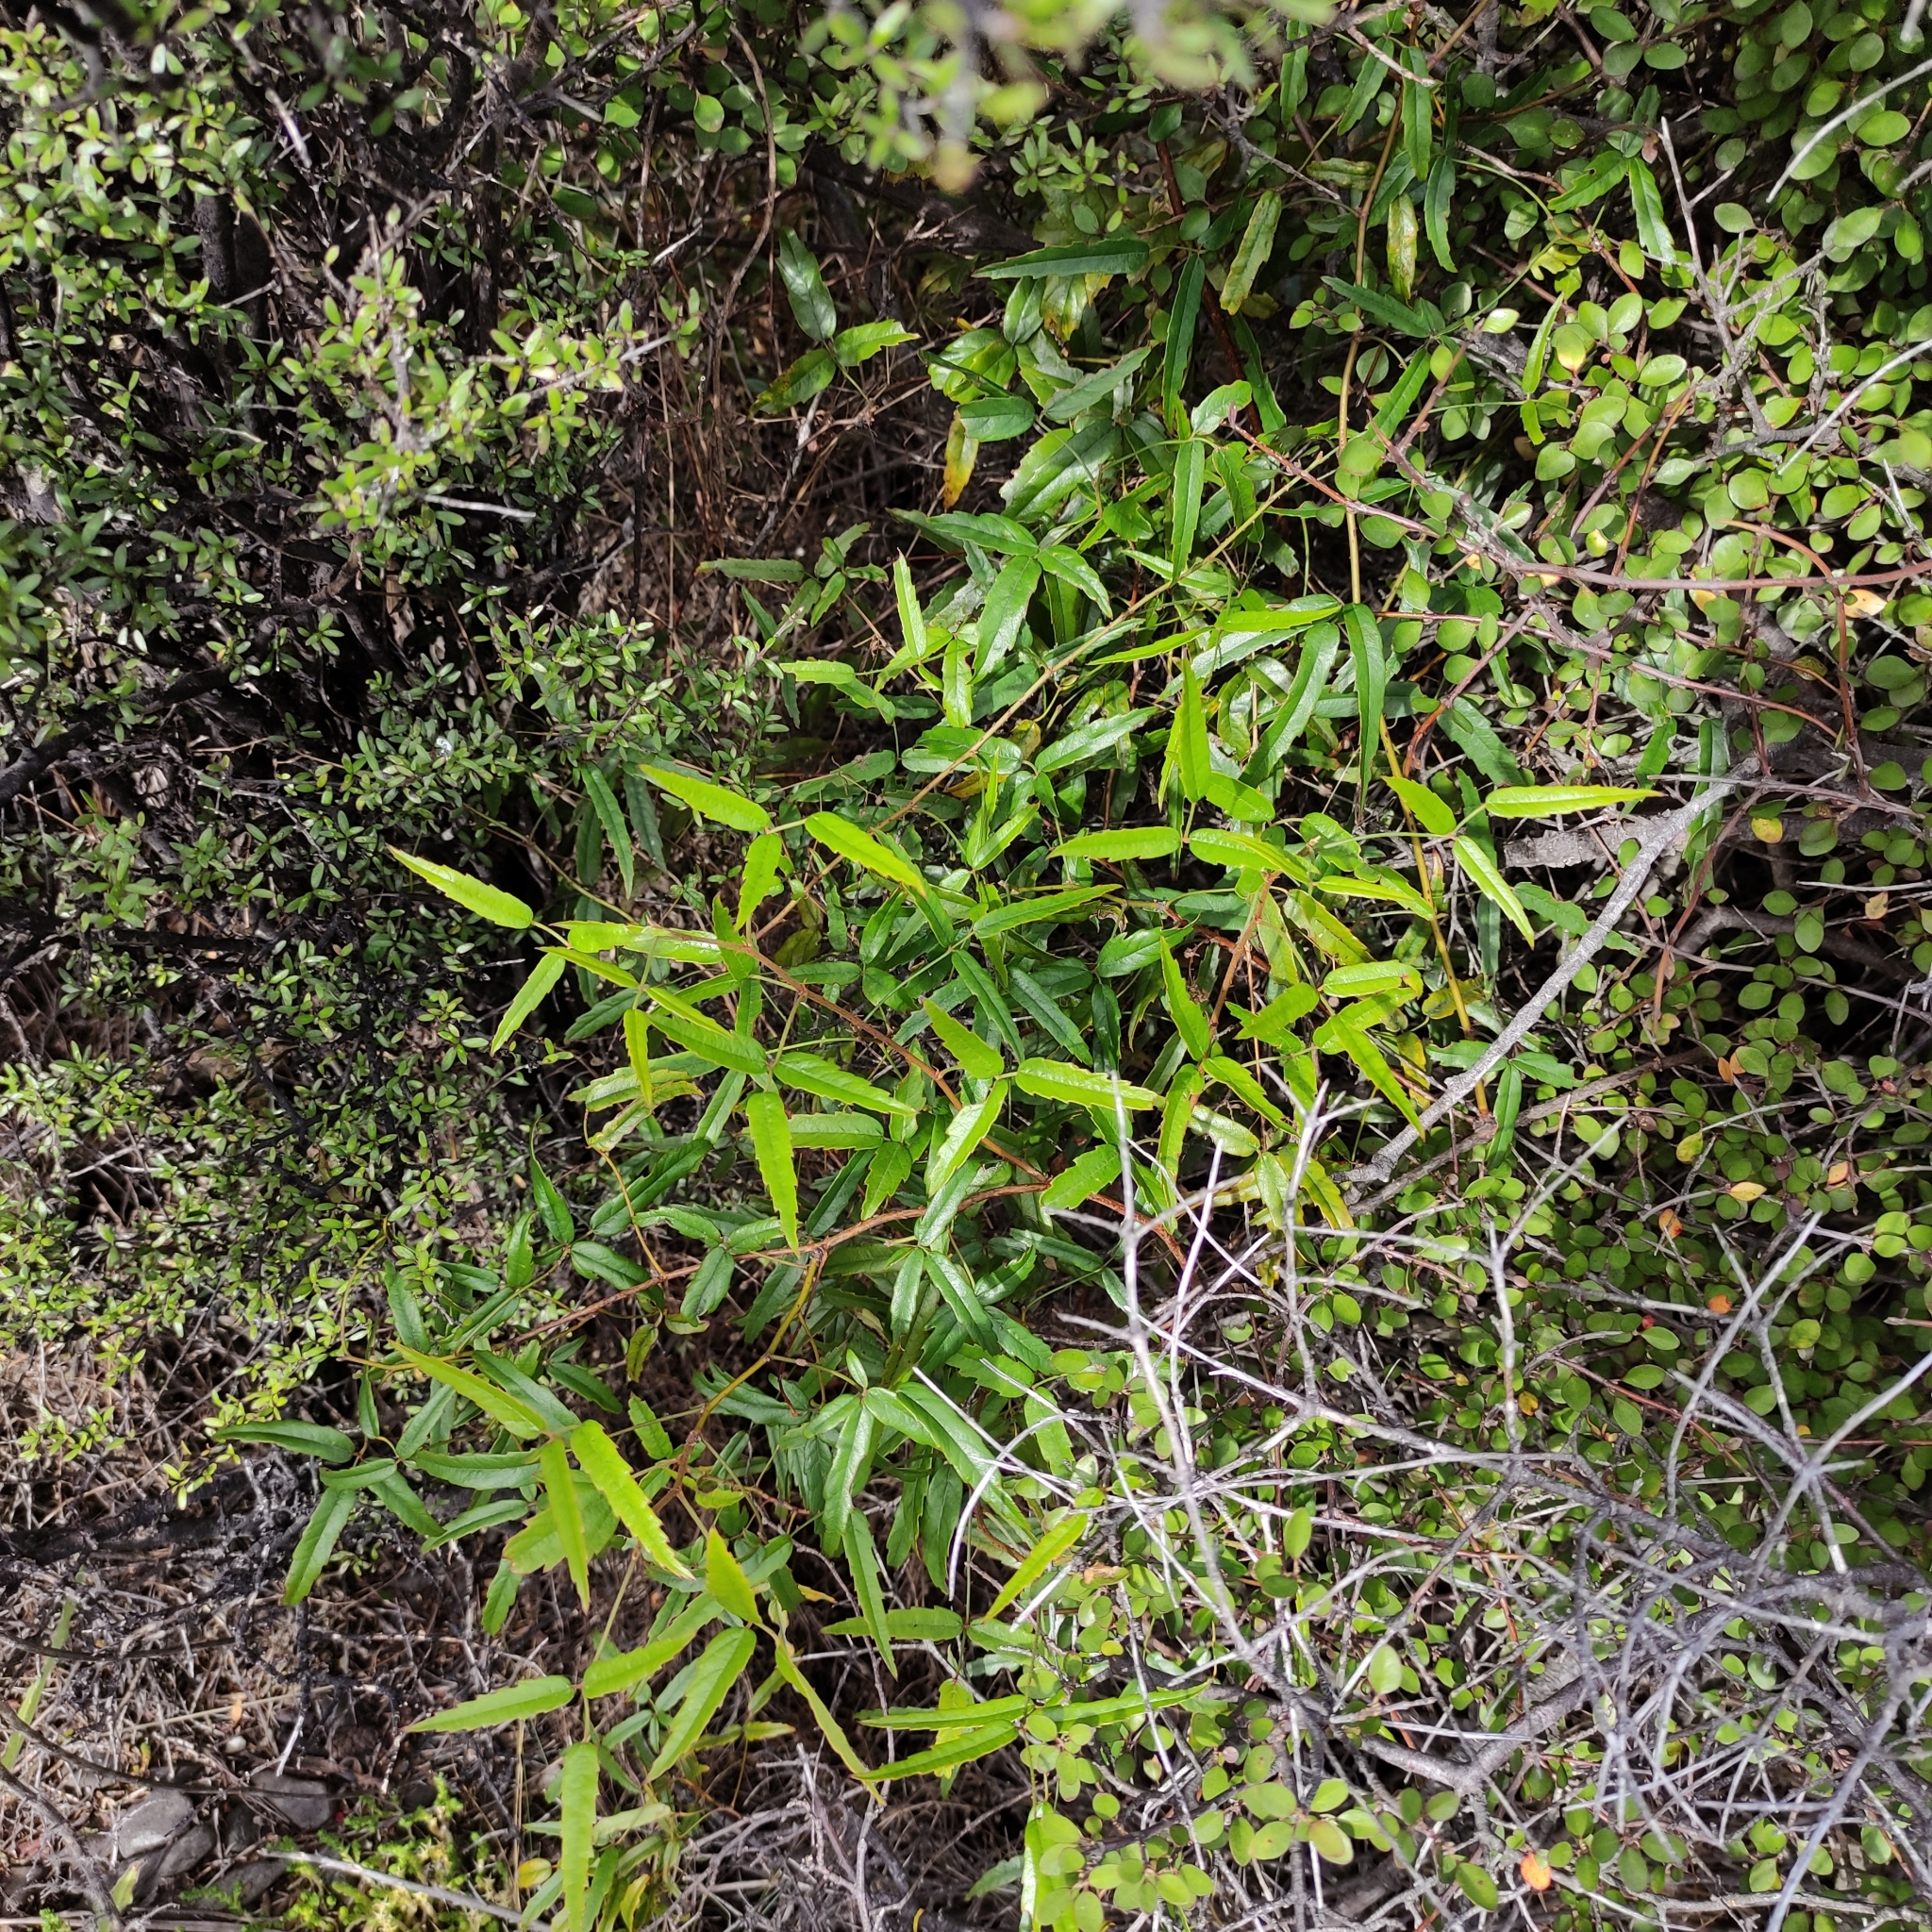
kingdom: Plantae
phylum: Tracheophyta
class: Magnoliopsida
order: Rosales
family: Rosaceae
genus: Rubus
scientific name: Rubus schmidelioides
